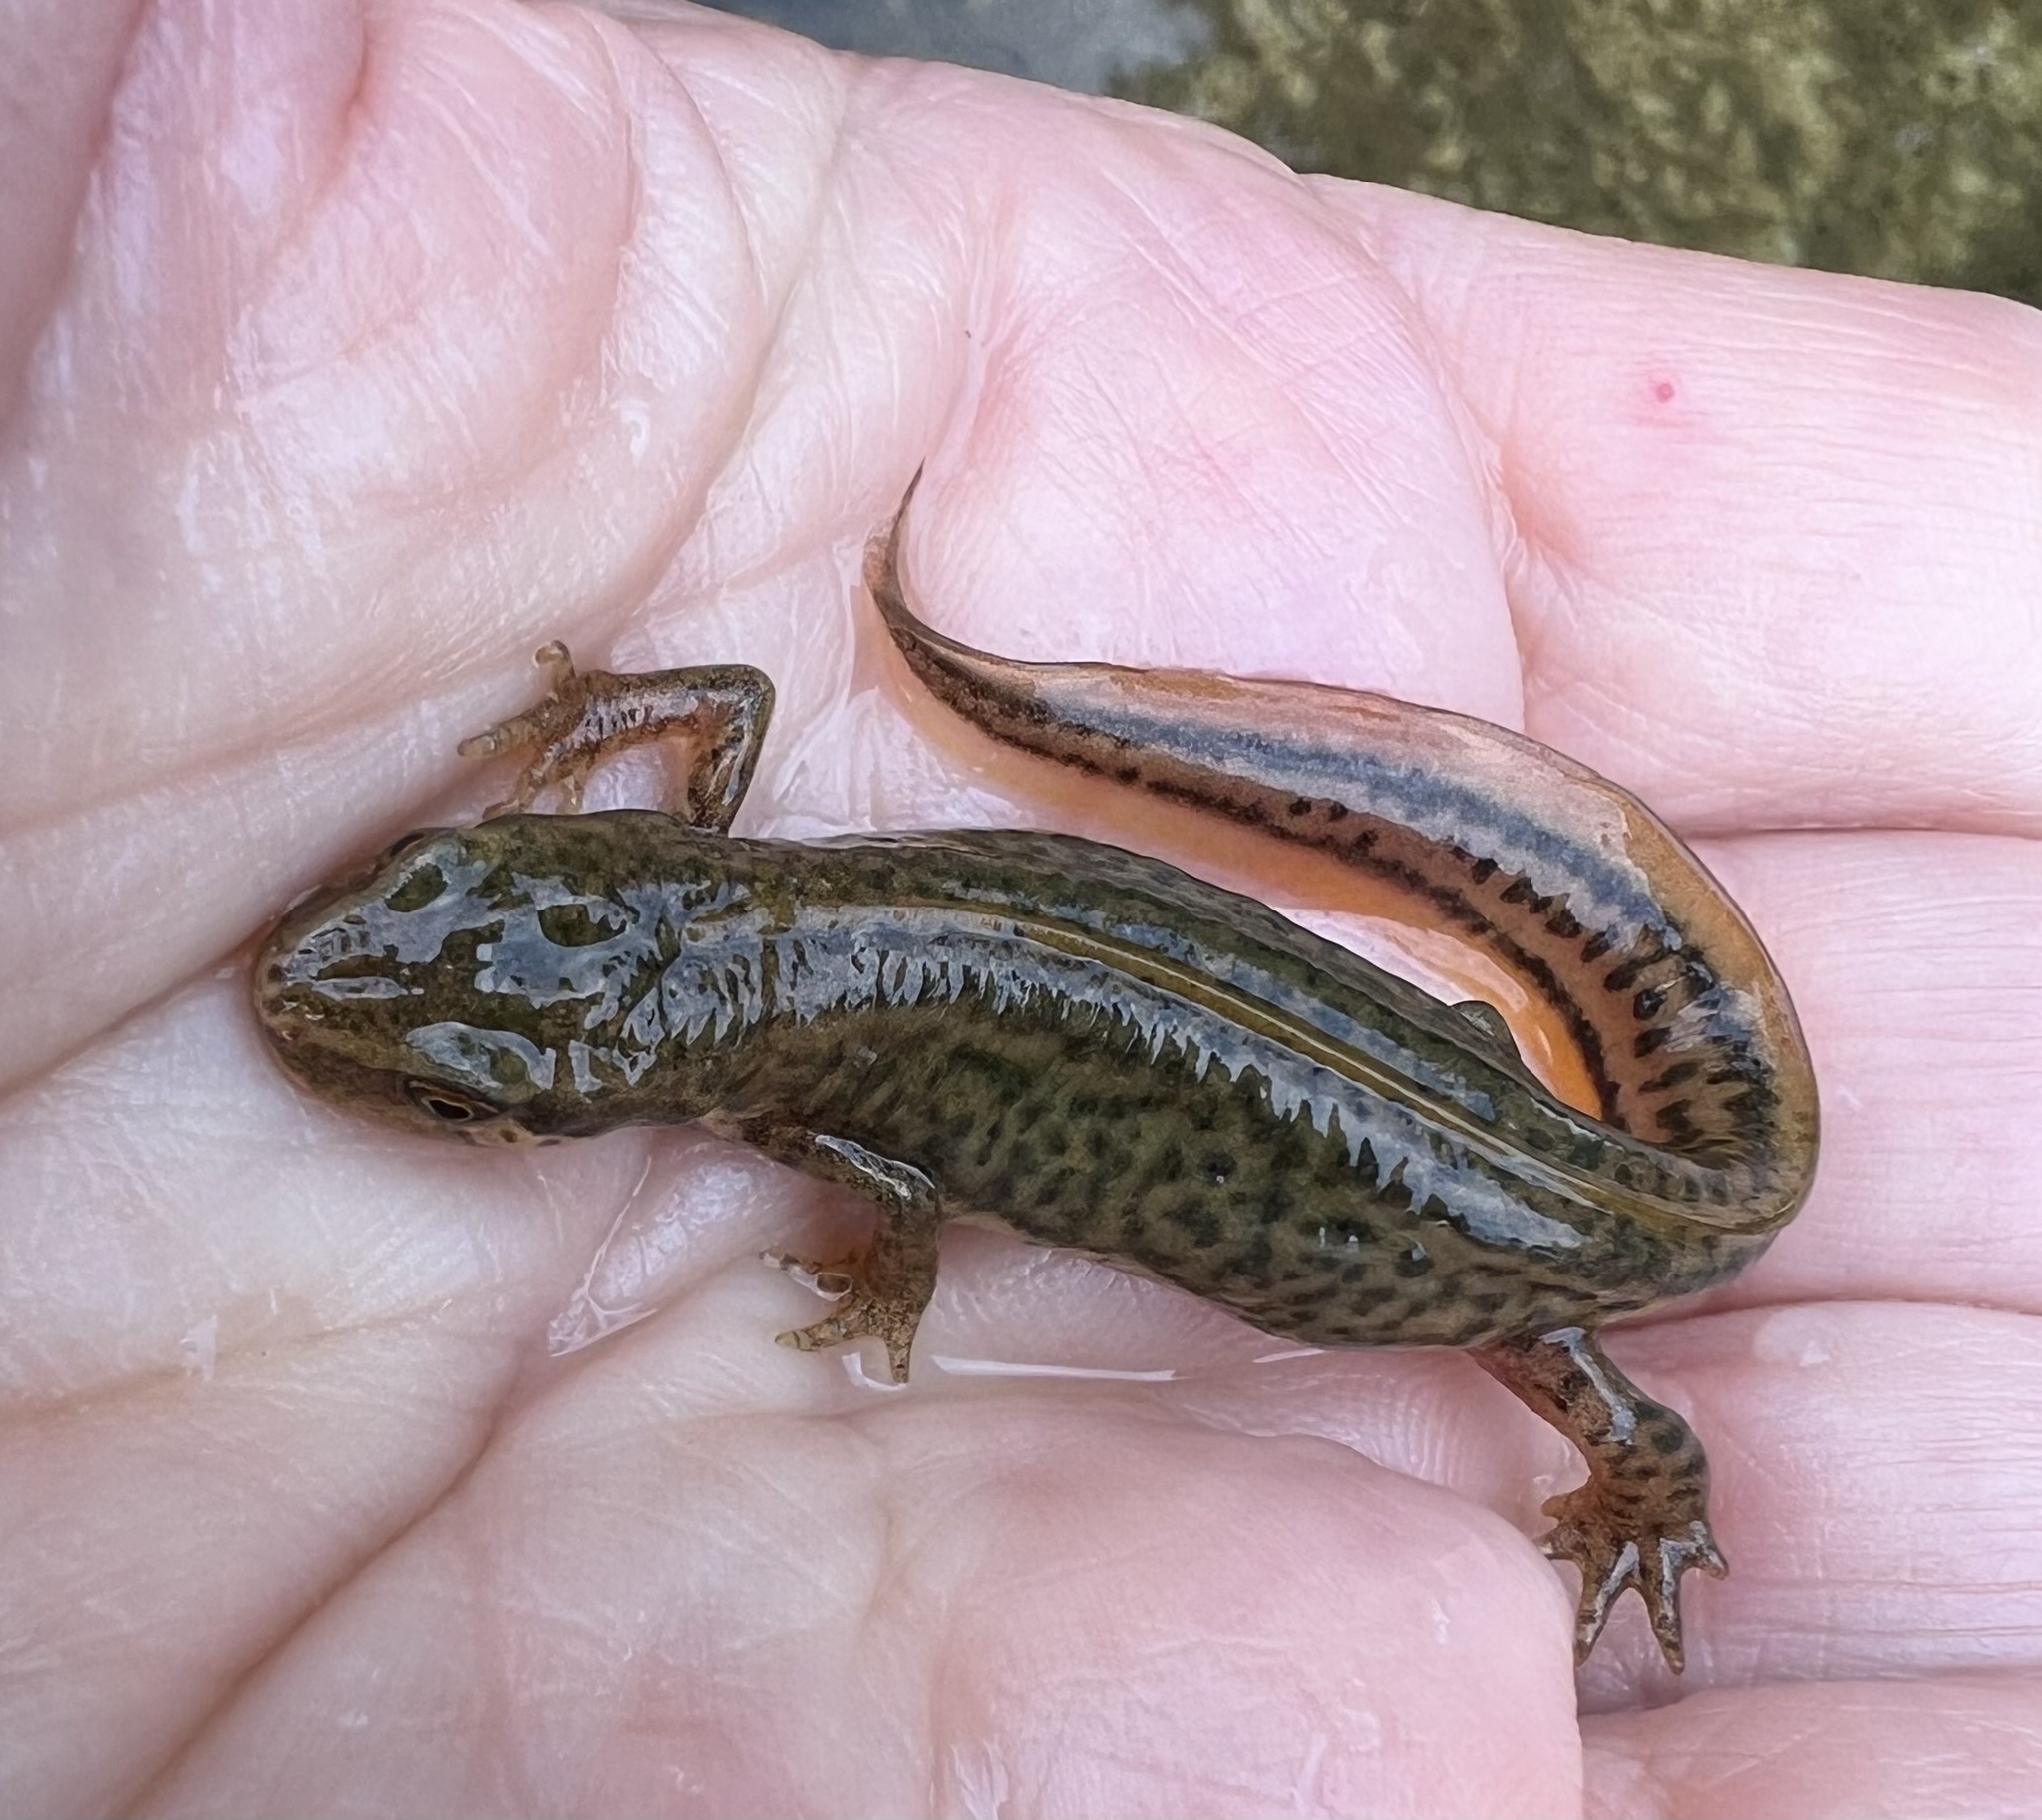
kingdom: Animalia
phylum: Chordata
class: Amphibia
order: Caudata
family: Salamandridae
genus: Lissotriton
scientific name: Lissotriton helveticus
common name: Palmate newt
